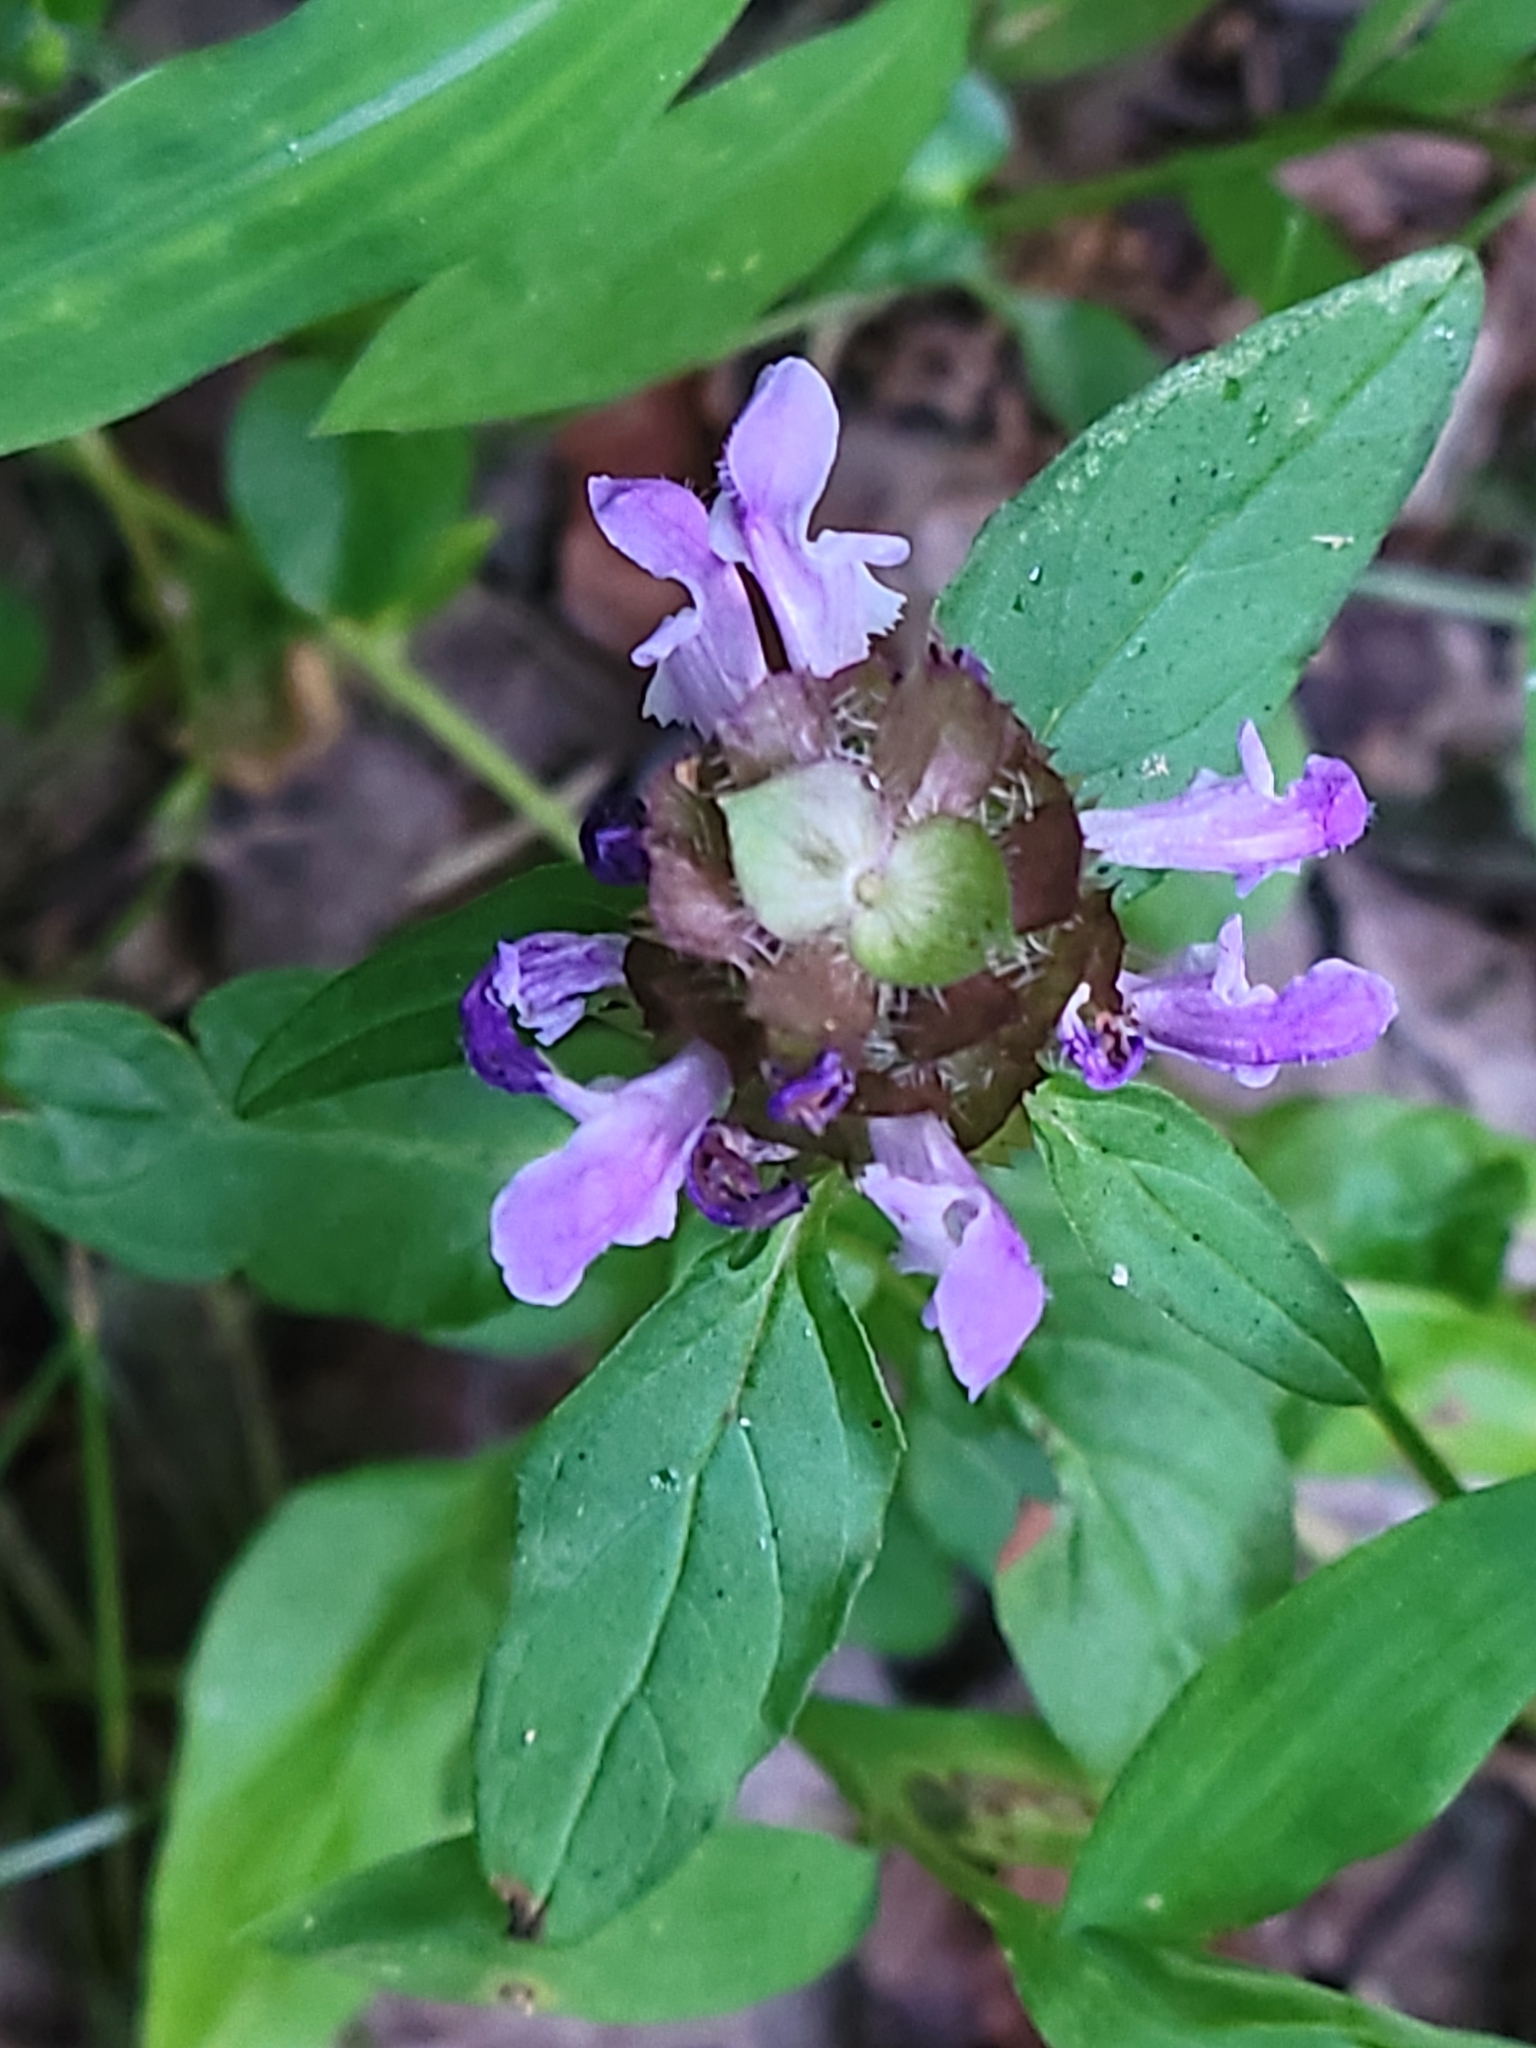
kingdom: Plantae
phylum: Tracheophyta
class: Magnoliopsida
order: Lamiales
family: Lamiaceae
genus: Prunella
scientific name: Prunella vulgaris
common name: Heal-all
